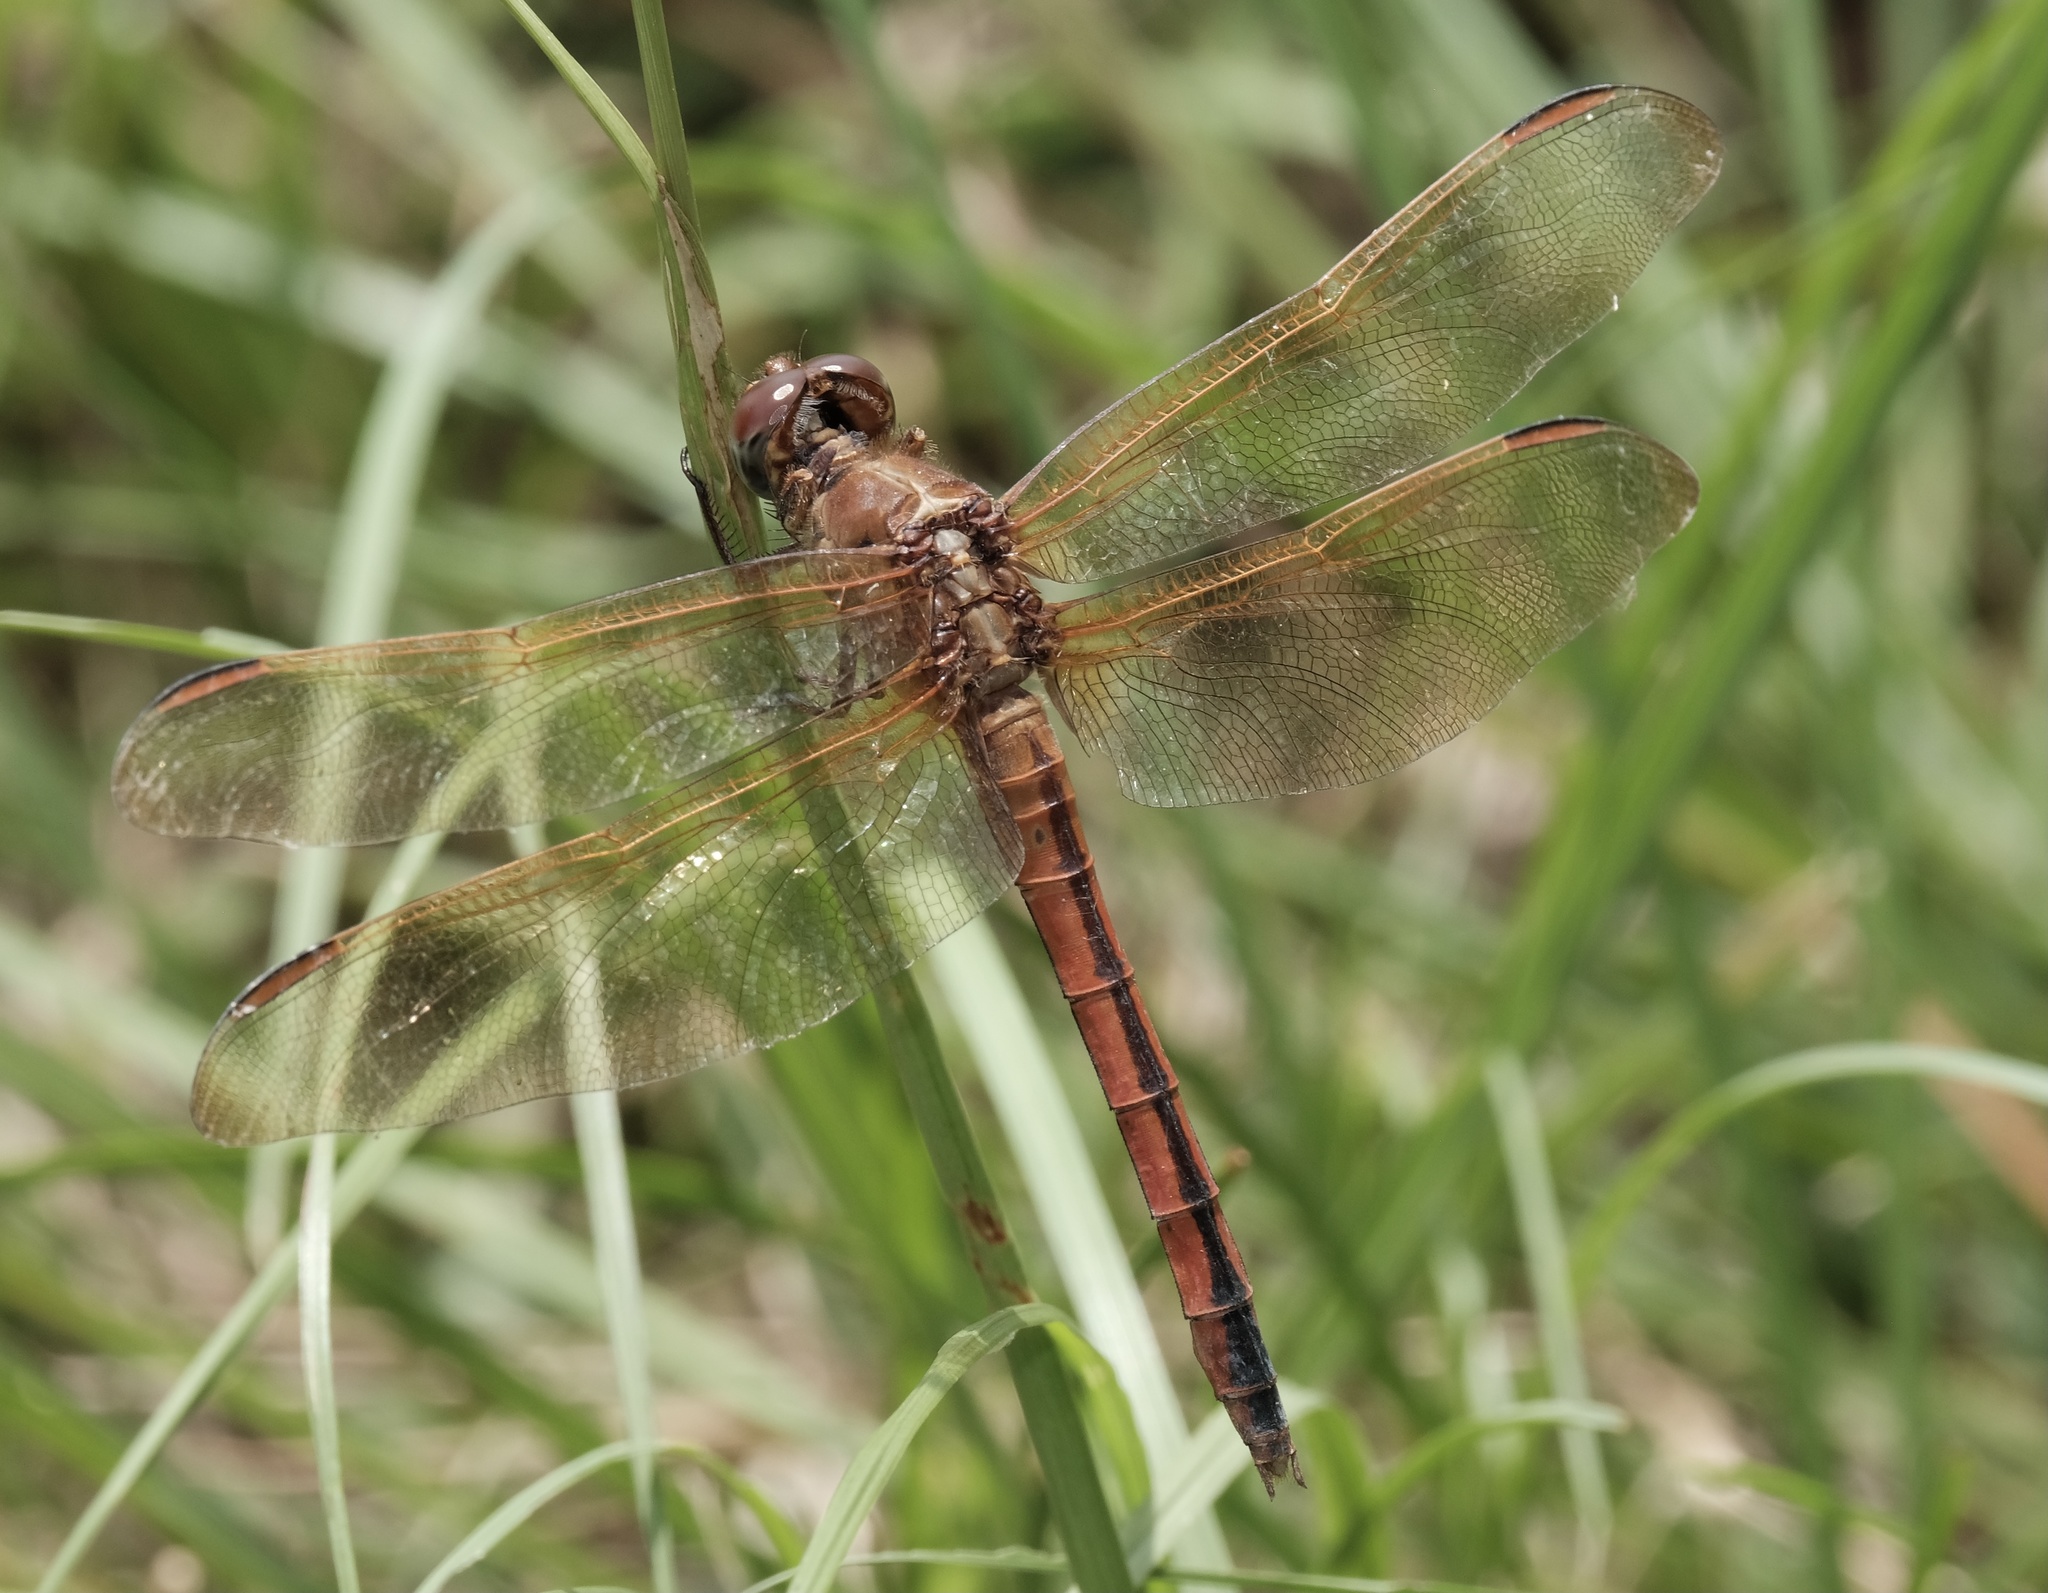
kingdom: Animalia
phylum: Arthropoda
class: Insecta
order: Odonata
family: Libellulidae
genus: Libellula
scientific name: Libellula needhami
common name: Needham's skimmer
